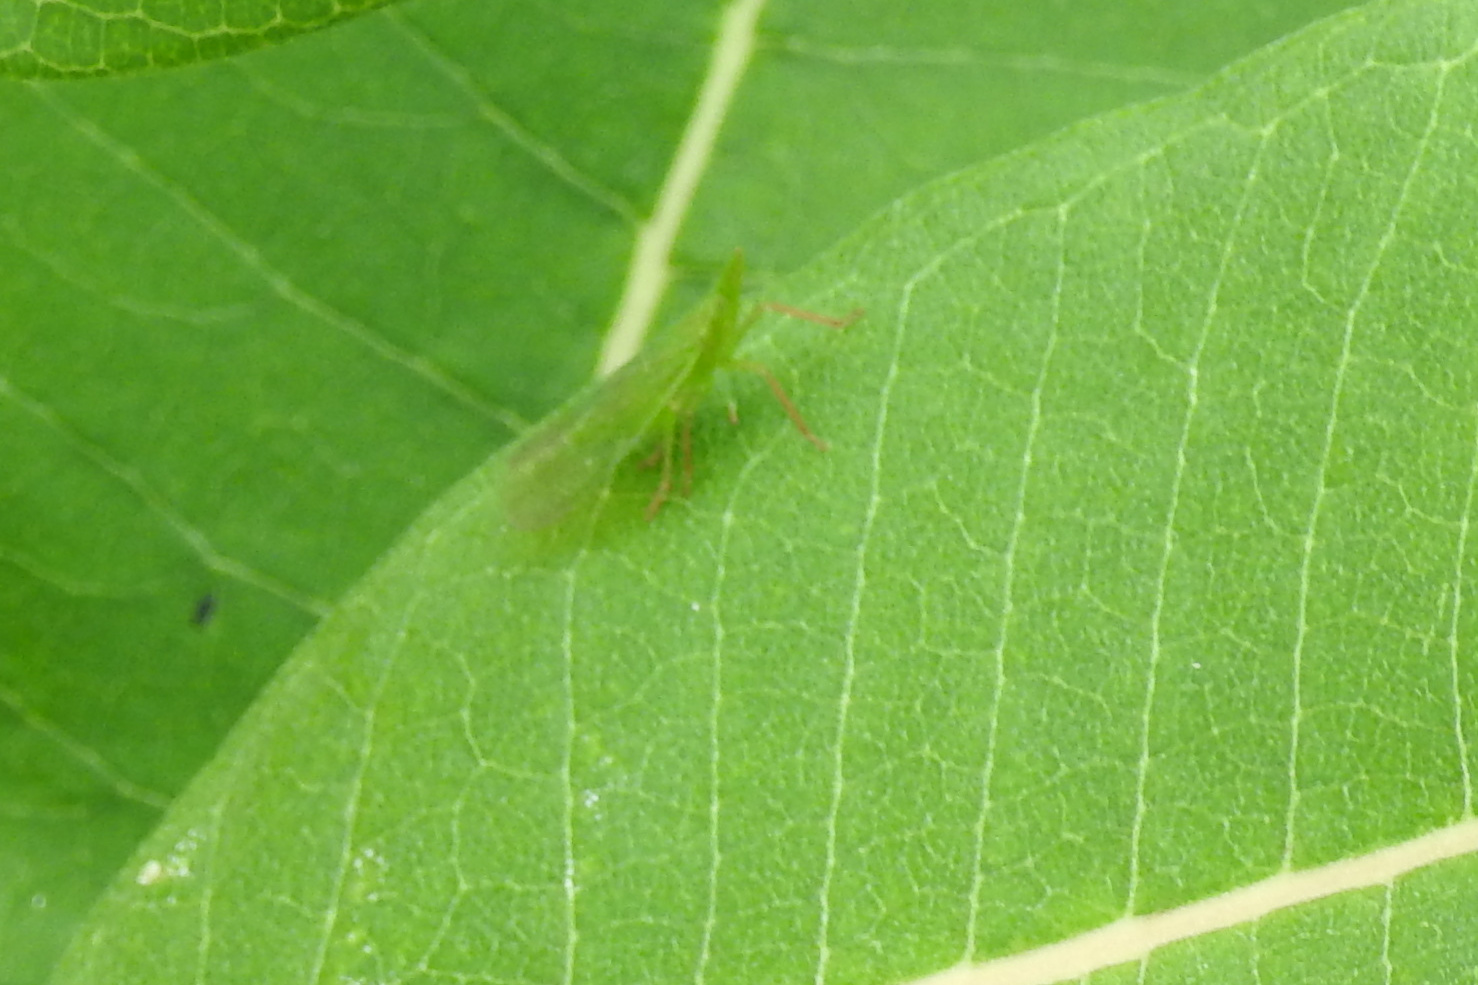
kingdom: Animalia
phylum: Arthropoda
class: Insecta
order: Hemiptera
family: Dictyopharidae
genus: Rhynchomitra
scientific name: Rhynchomitra microrhina
